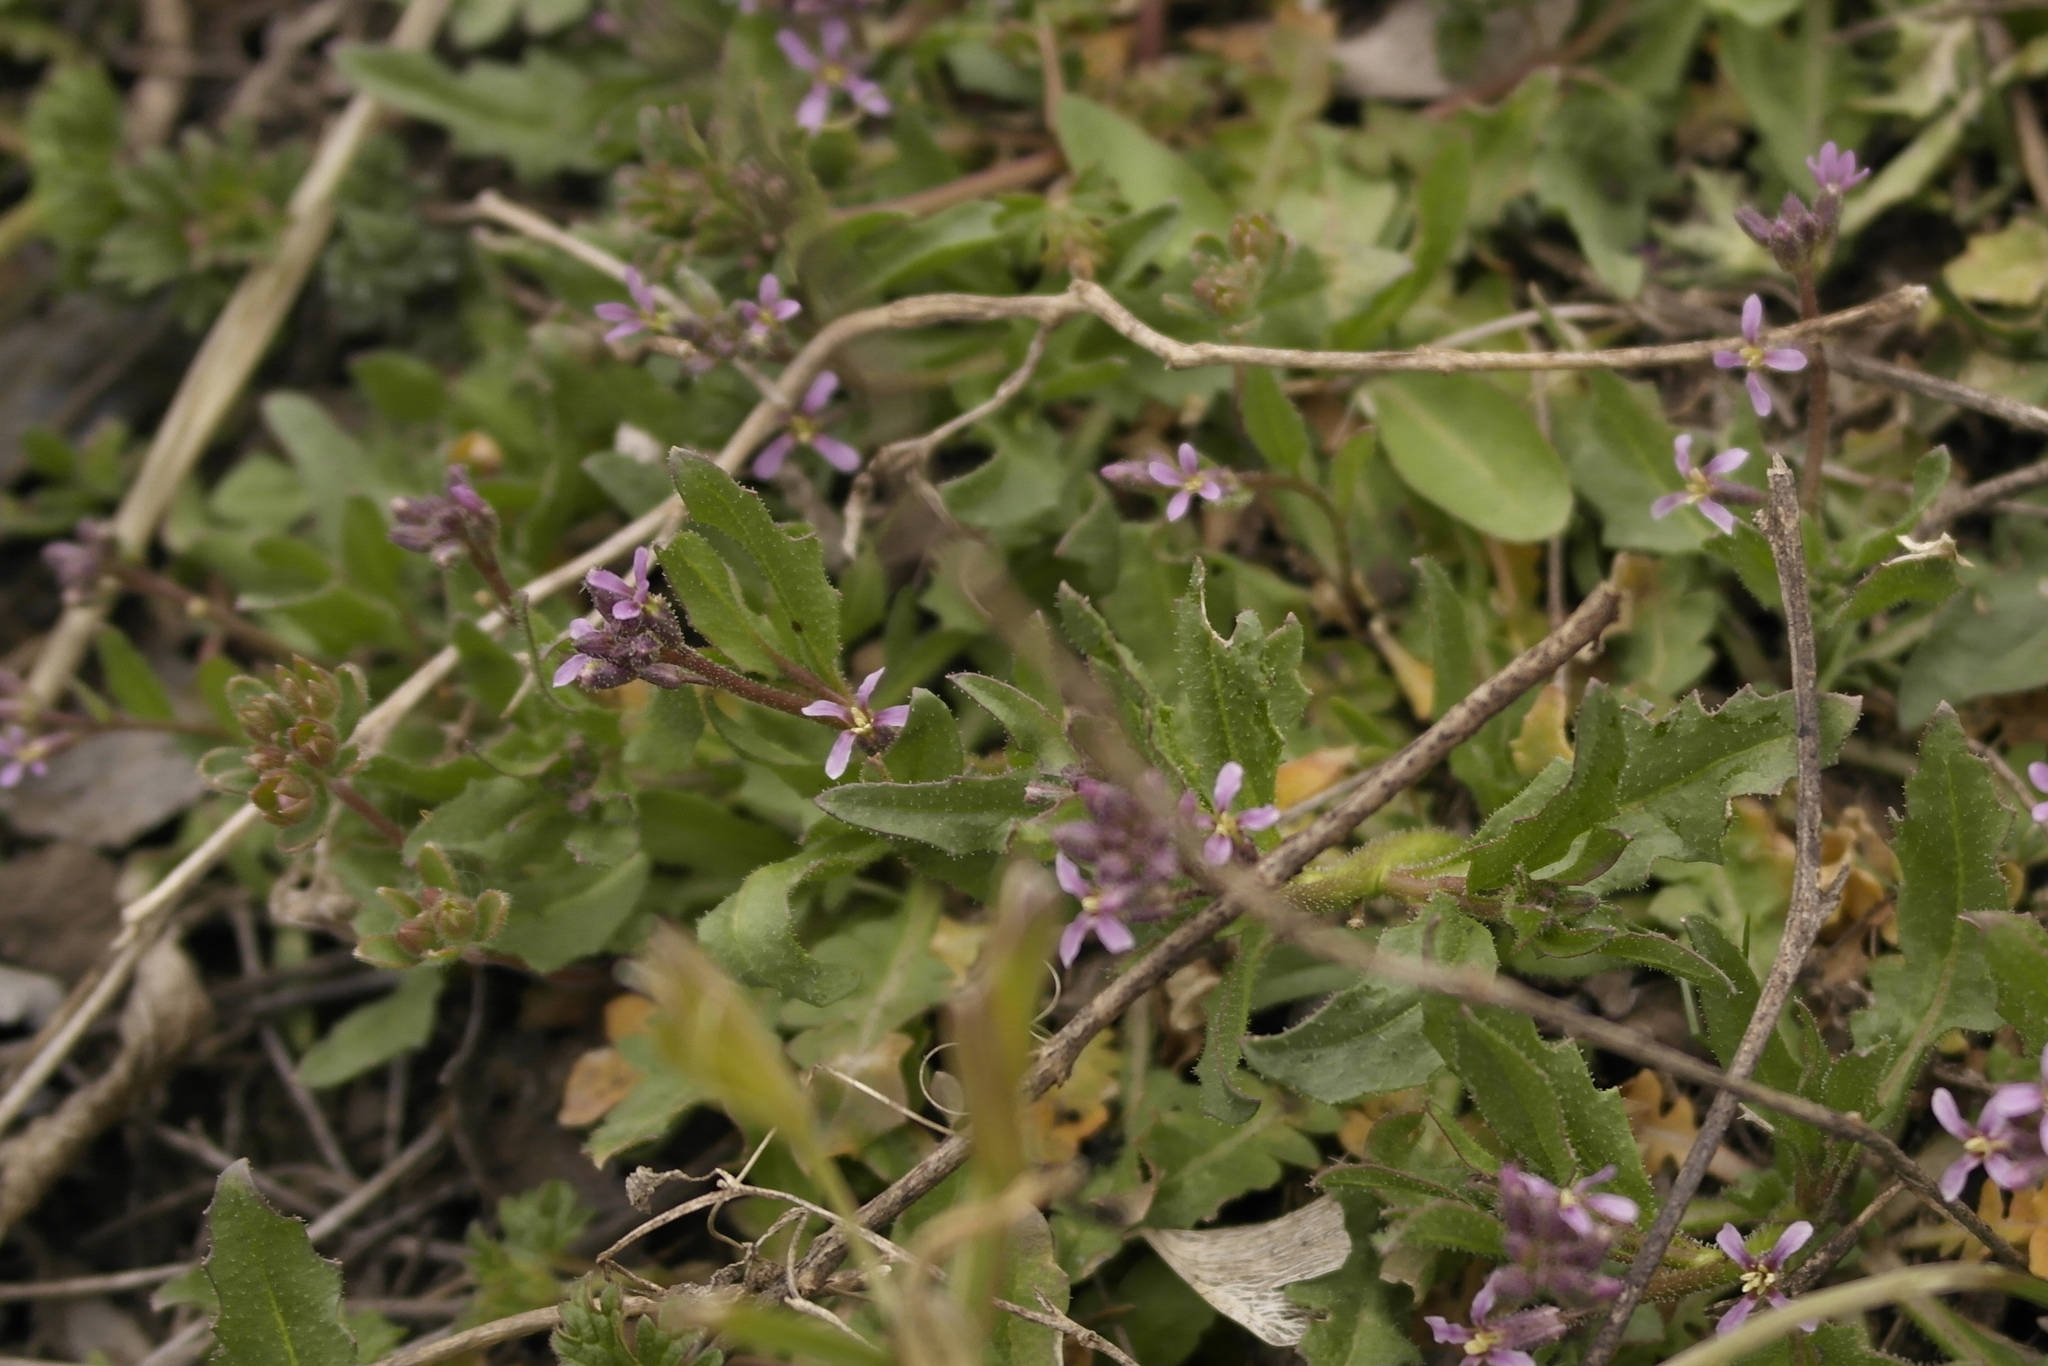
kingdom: Plantae
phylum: Tracheophyta
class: Magnoliopsida
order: Brassicales
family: Brassicaceae
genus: Chorispora
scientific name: Chorispora tenella
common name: Crossflower
